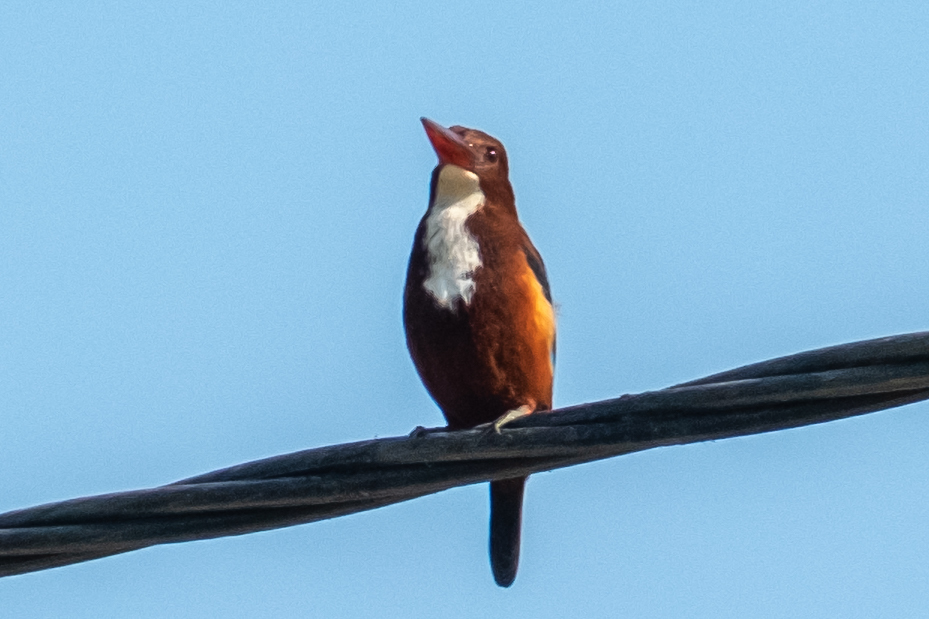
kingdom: Animalia
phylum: Chordata
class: Aves
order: Coraciiformes
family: Alcedinidae
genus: Halcyon
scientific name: Halcyon smyrnensis
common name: White-throated kingfisher
